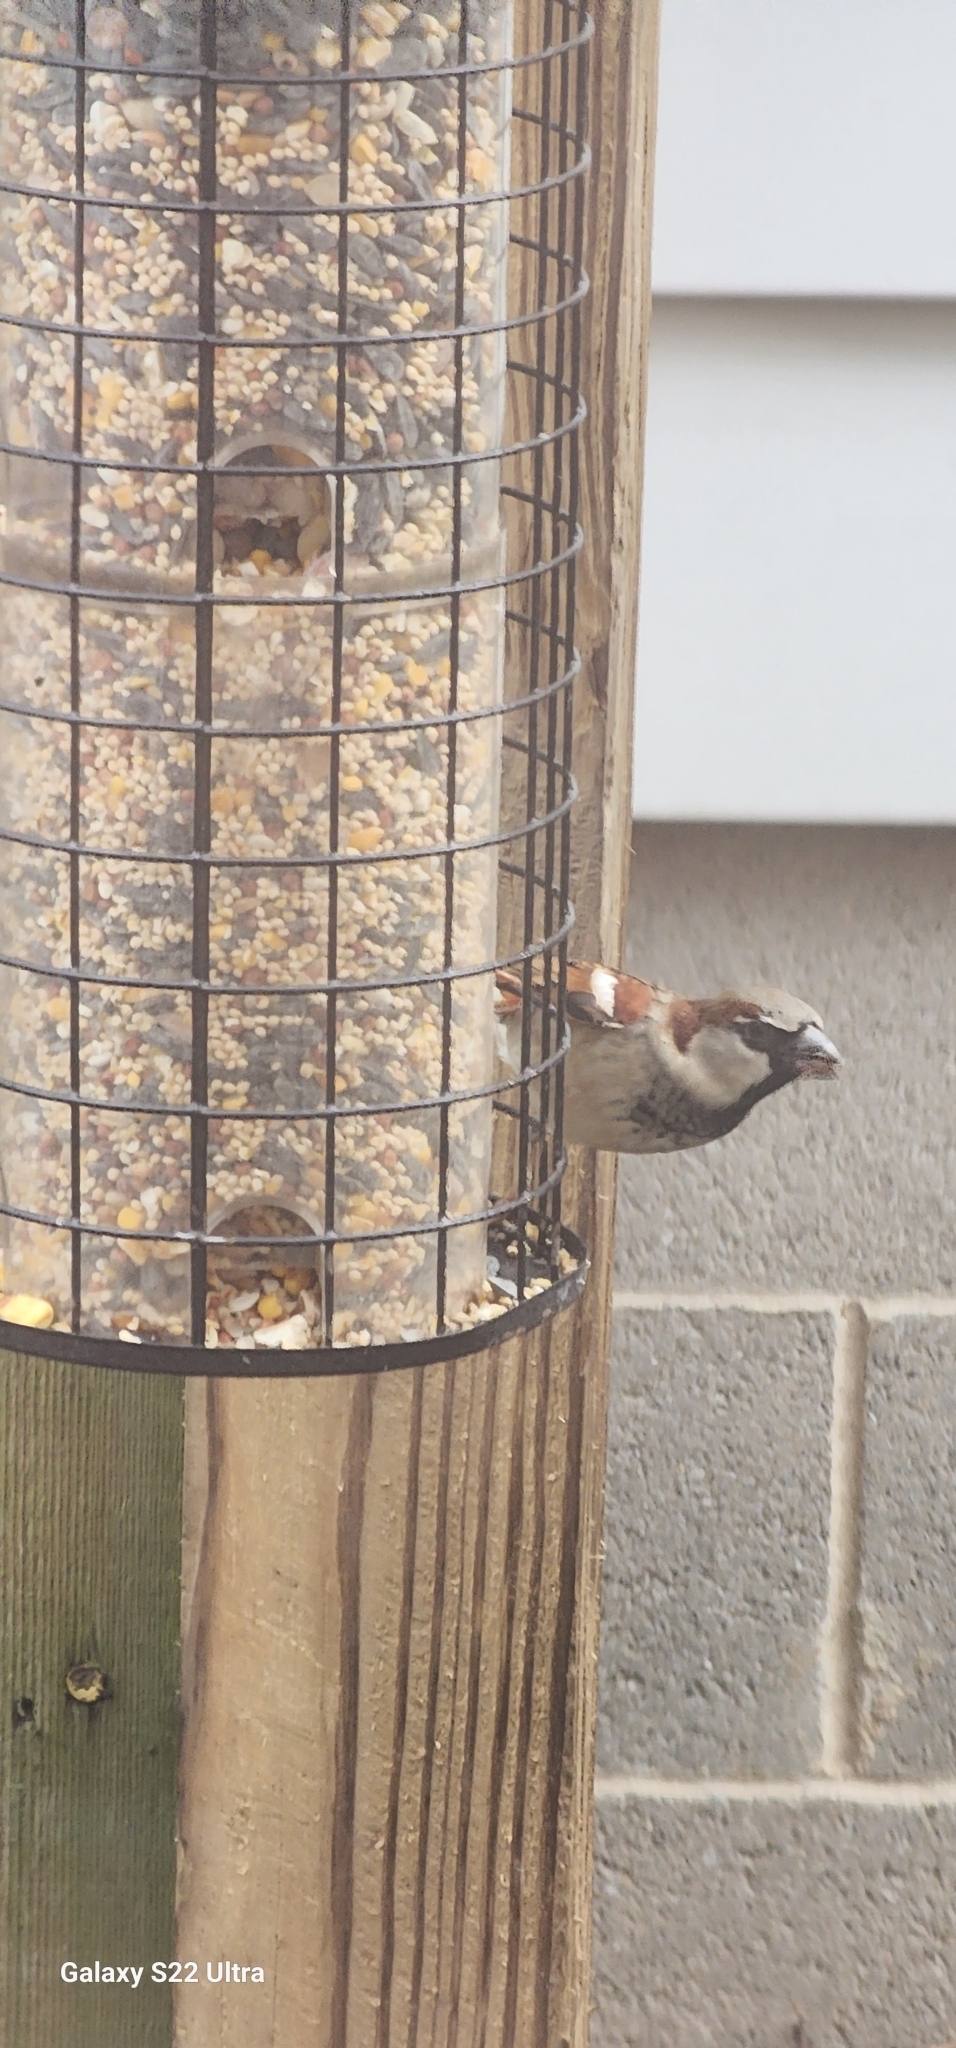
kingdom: Animalia
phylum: Chordata
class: Aves
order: Passeriformes
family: Passeridae
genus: Passer
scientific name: Passer domesticus
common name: House sparrow
